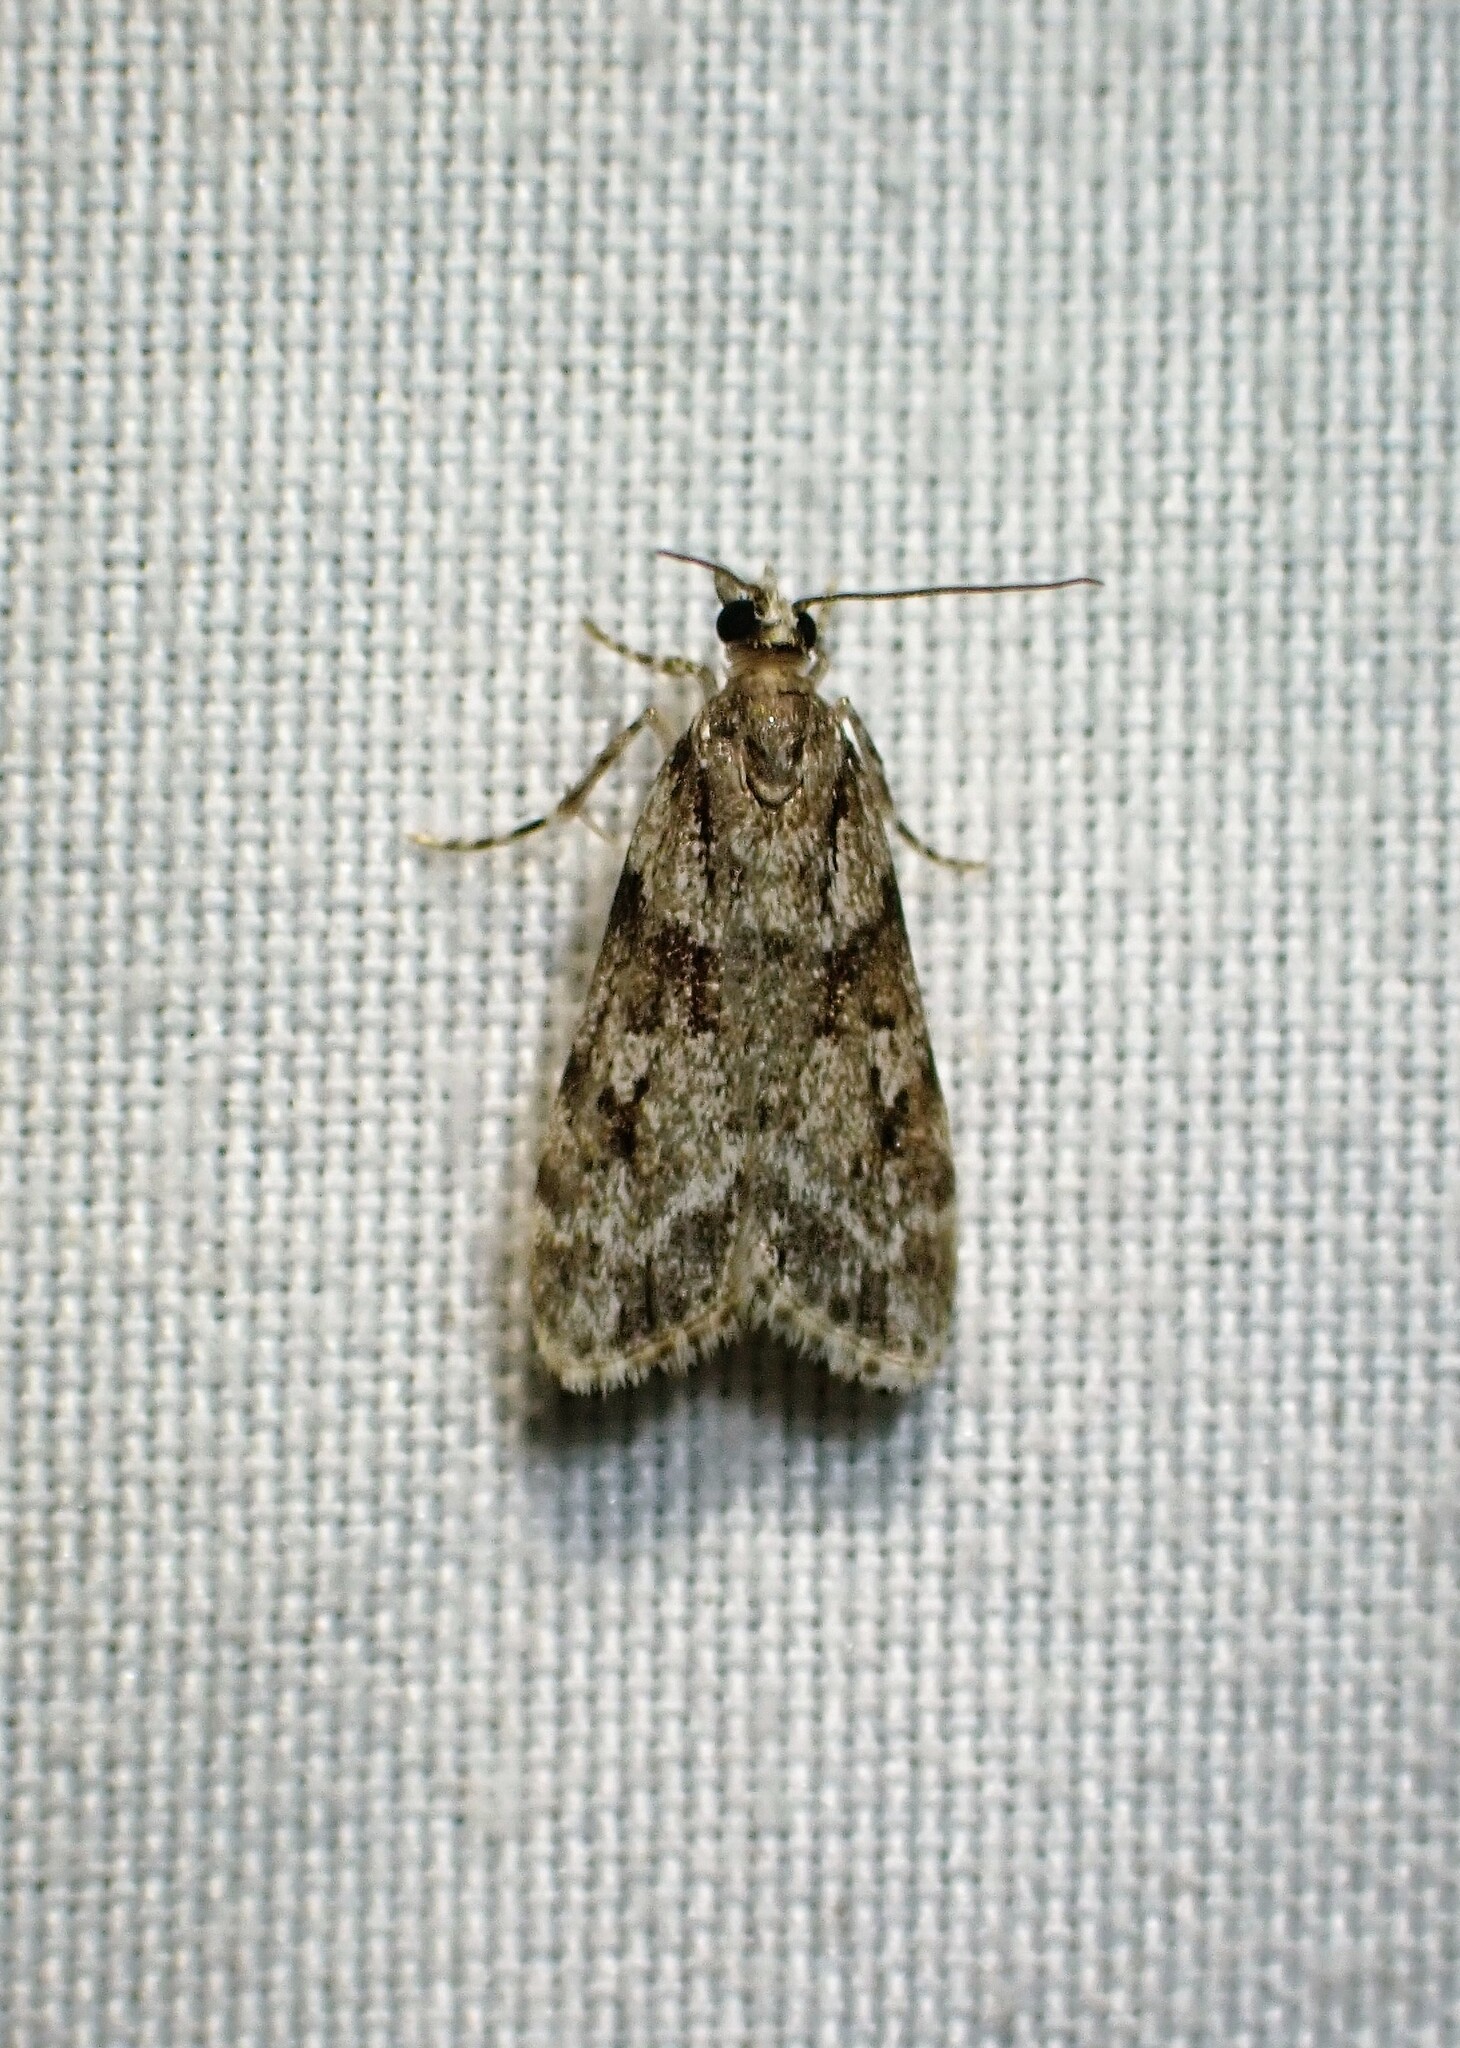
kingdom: Animalia
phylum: Arthropoda
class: Insecta
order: Lepidoptera
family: Crambidae
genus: Scoparia
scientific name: Scoparia biplagialis
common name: Double-striped scoparia moth
